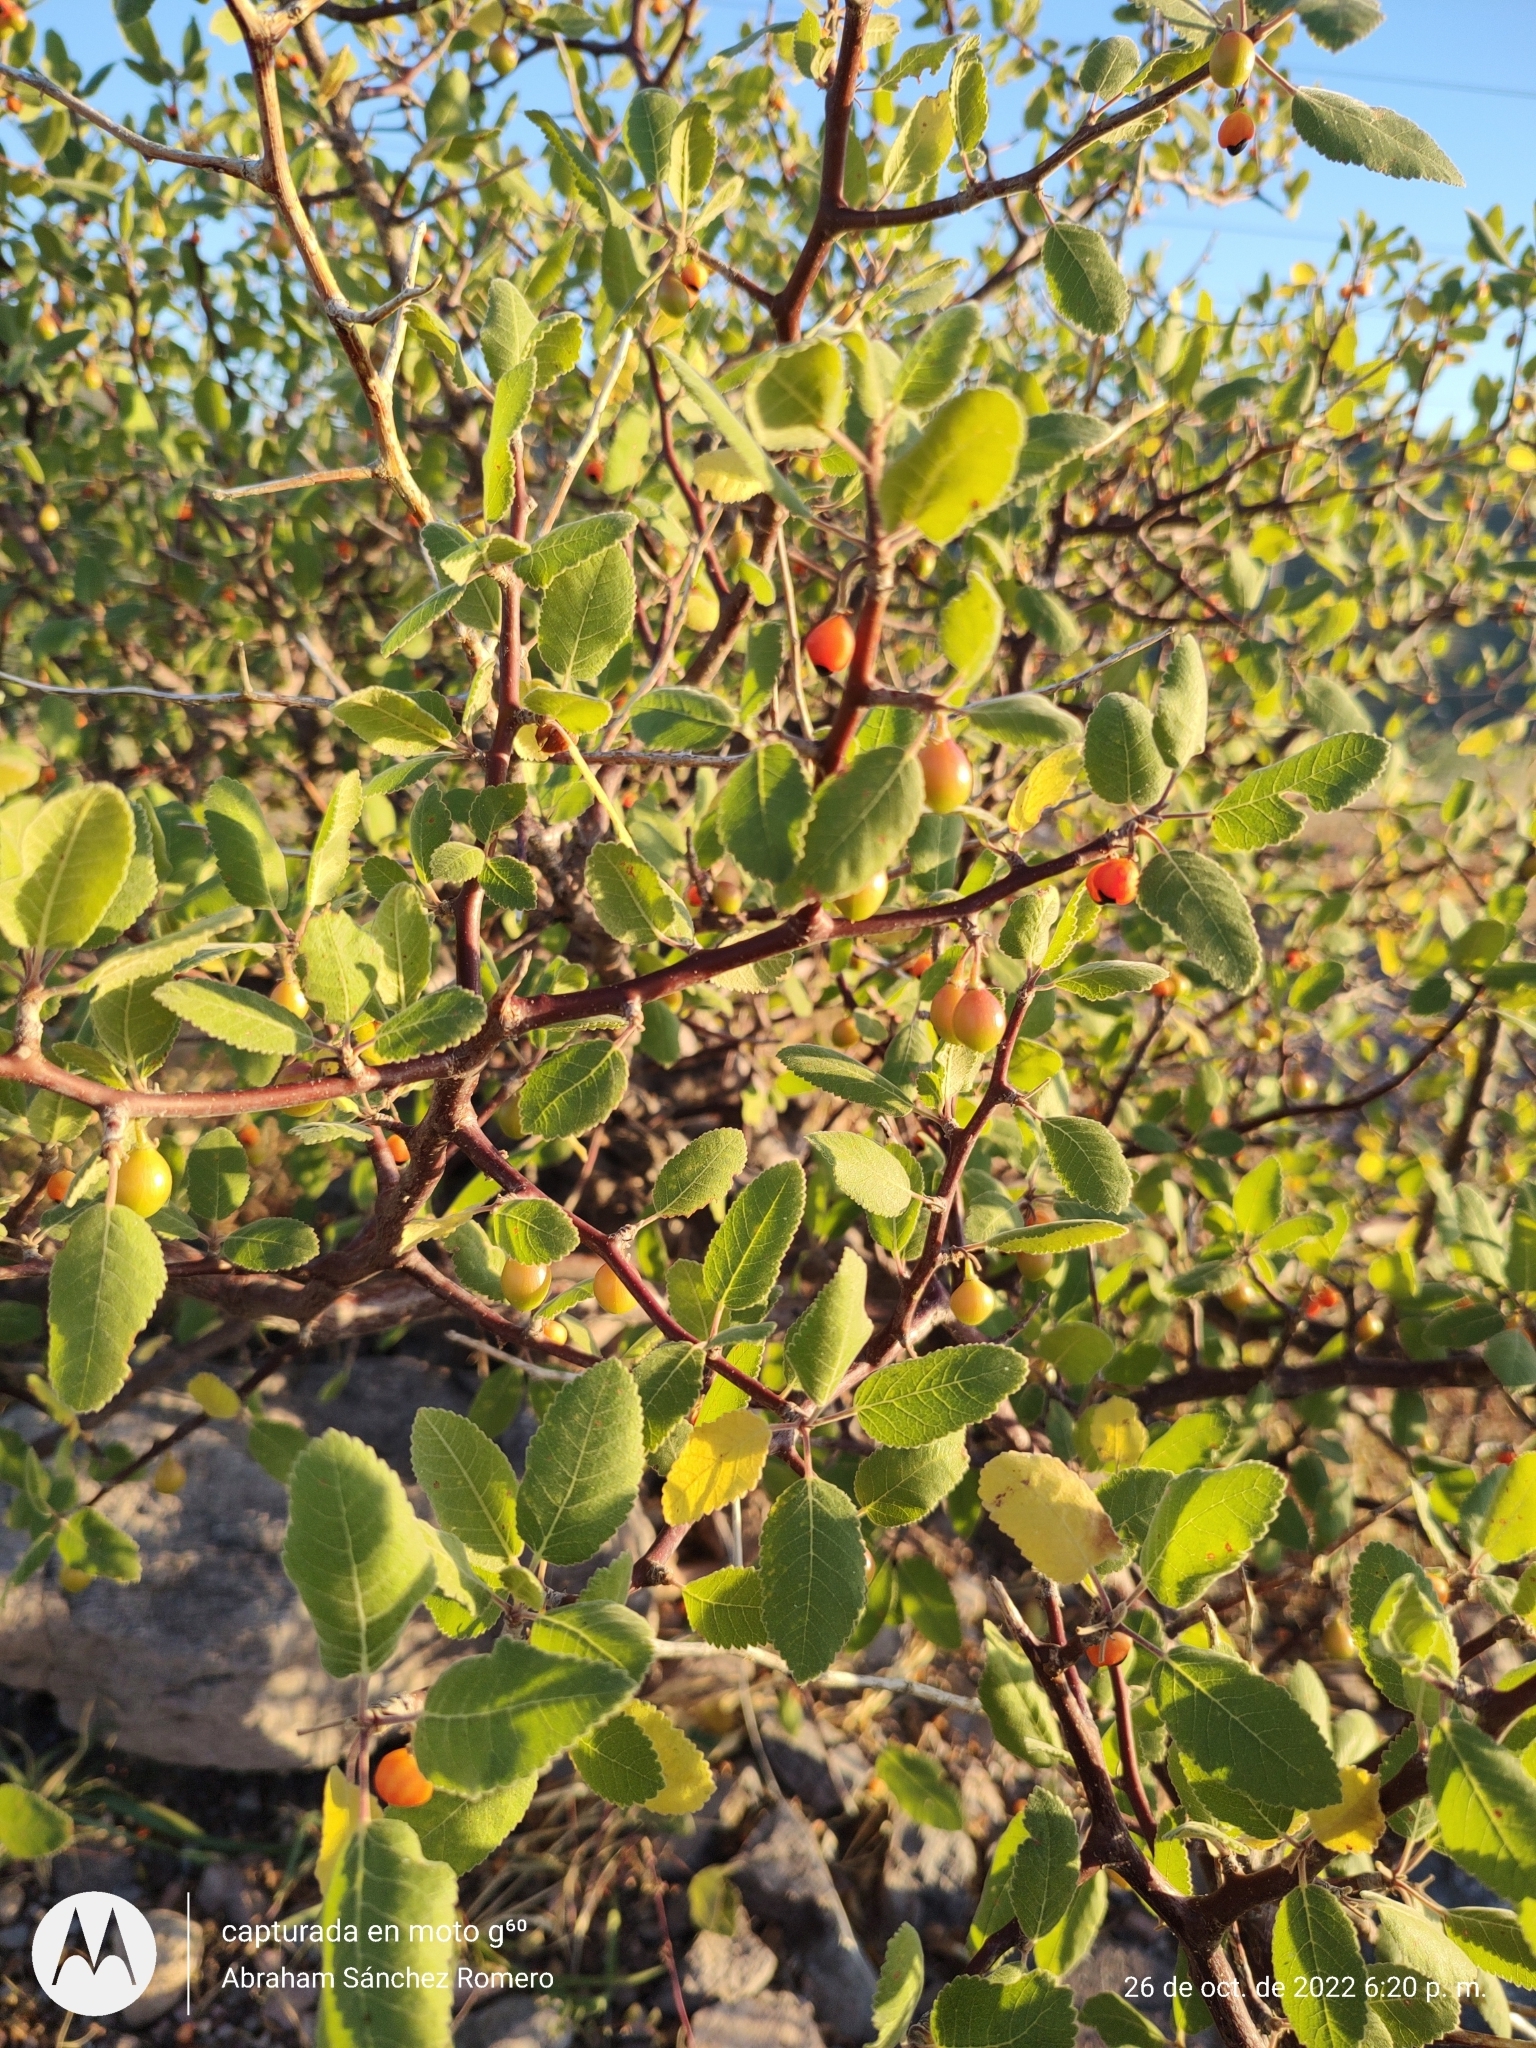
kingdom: Plantae
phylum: Tracheophyta
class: Magnoliopsida
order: Sapindales
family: Burseraceae
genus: Bursera
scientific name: Bursera hindsiana
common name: Red elephant tree
